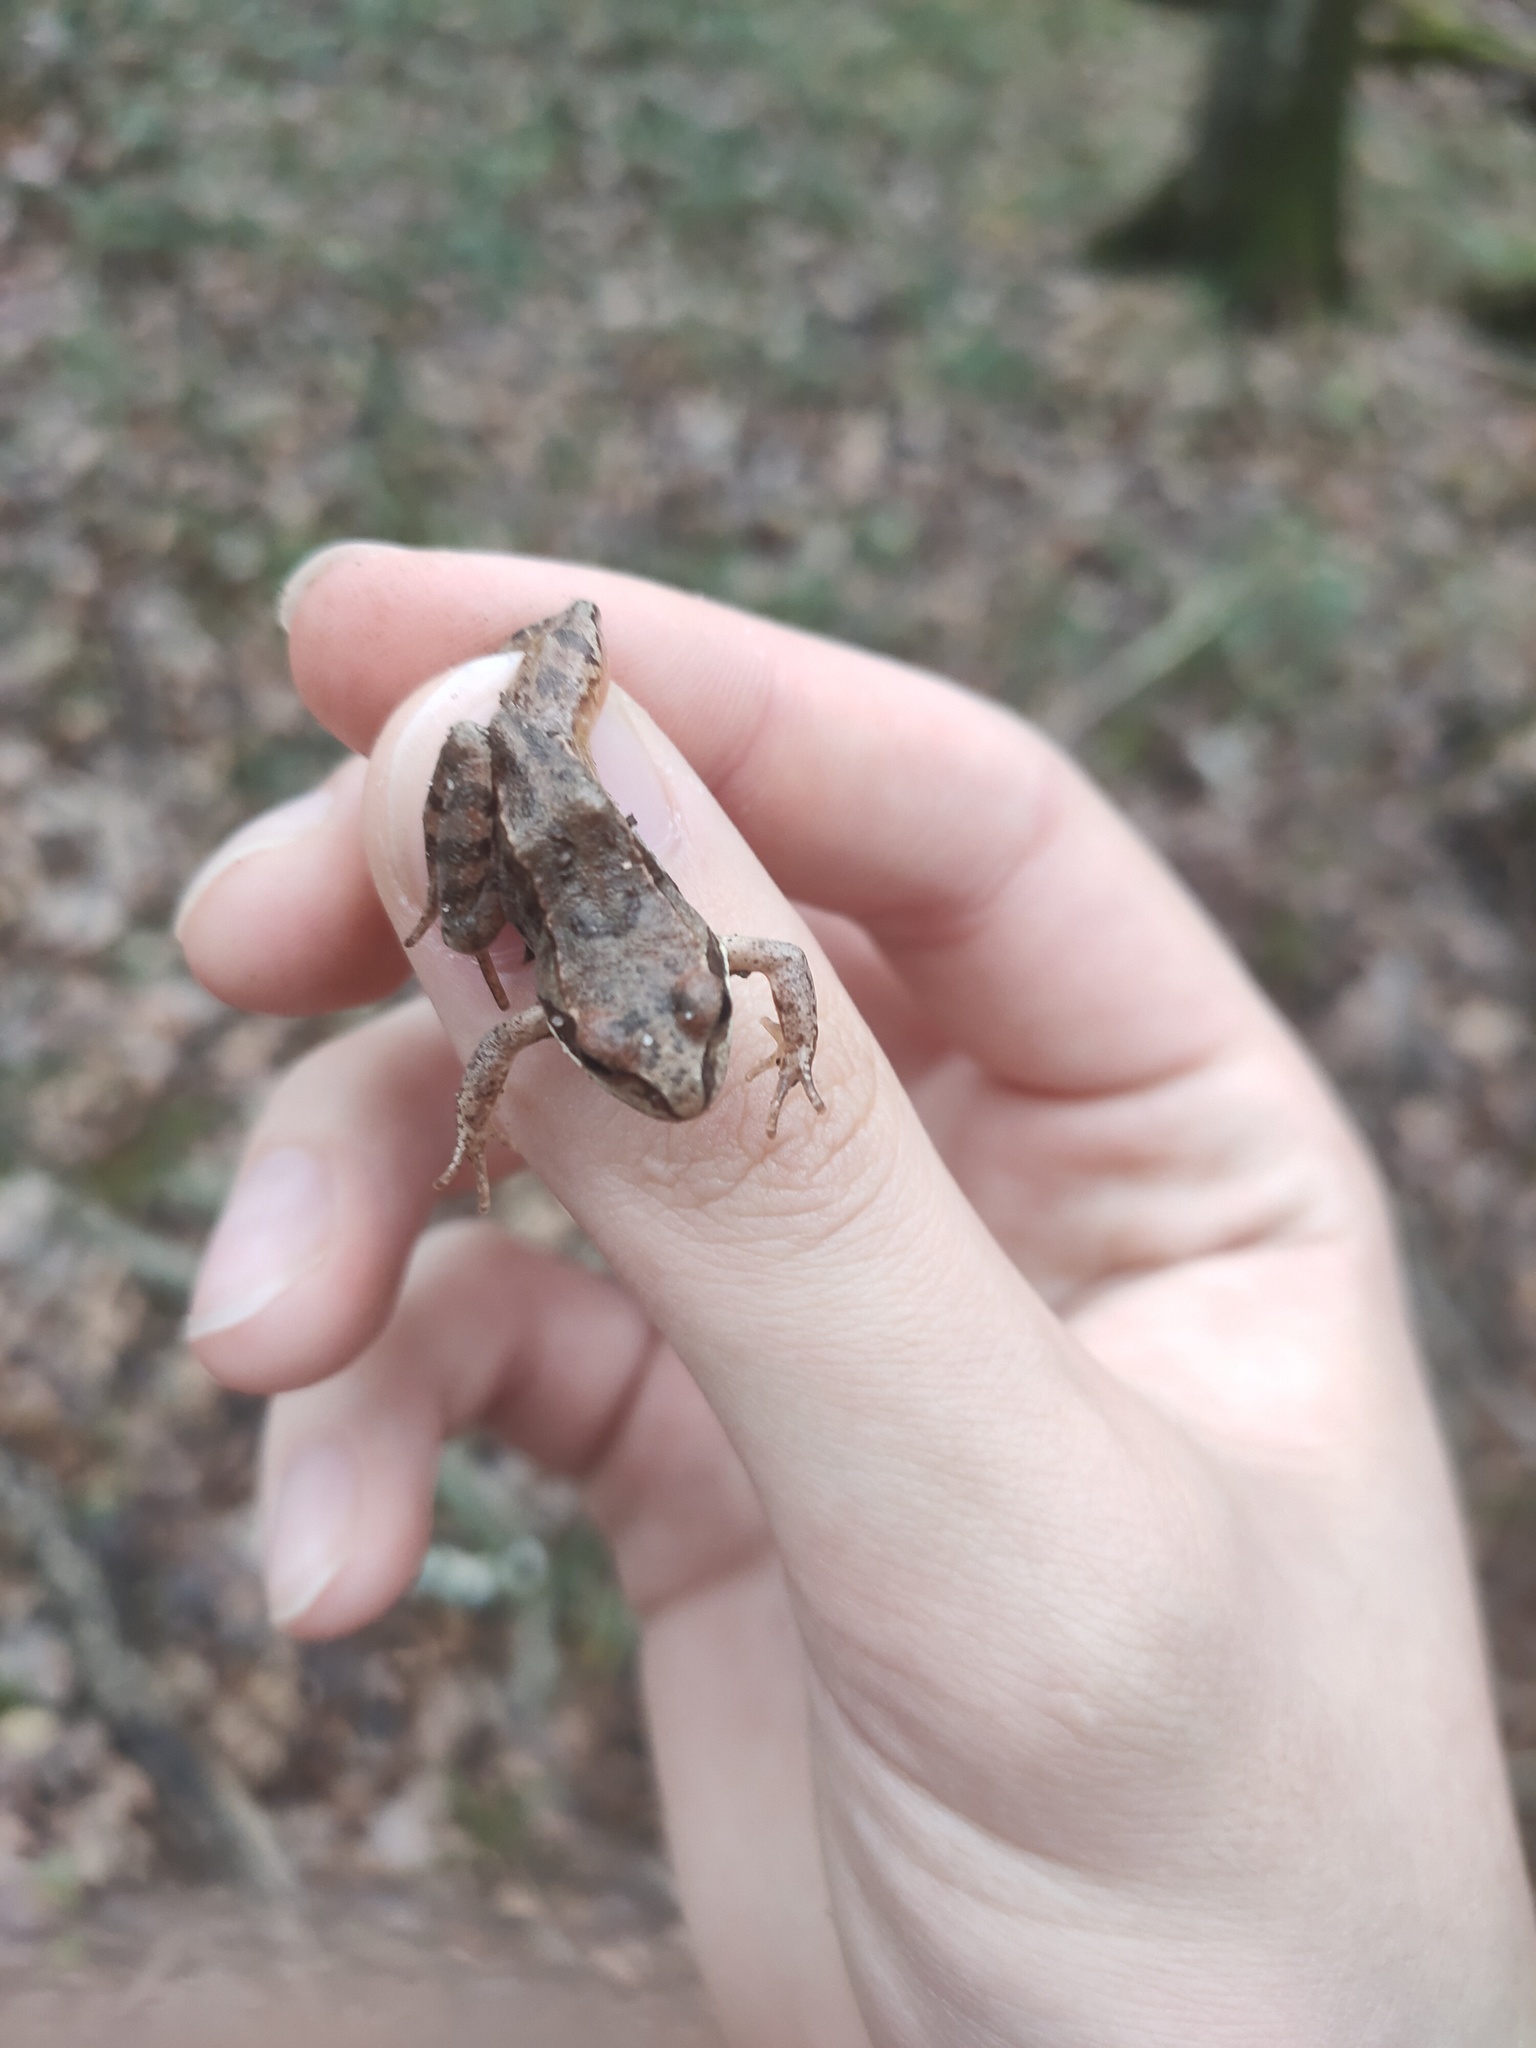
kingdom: Animalia
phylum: Chordata
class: Amphibia
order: Anura
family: Ranidae
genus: Rana
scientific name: Rana temporaria
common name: Common frog
